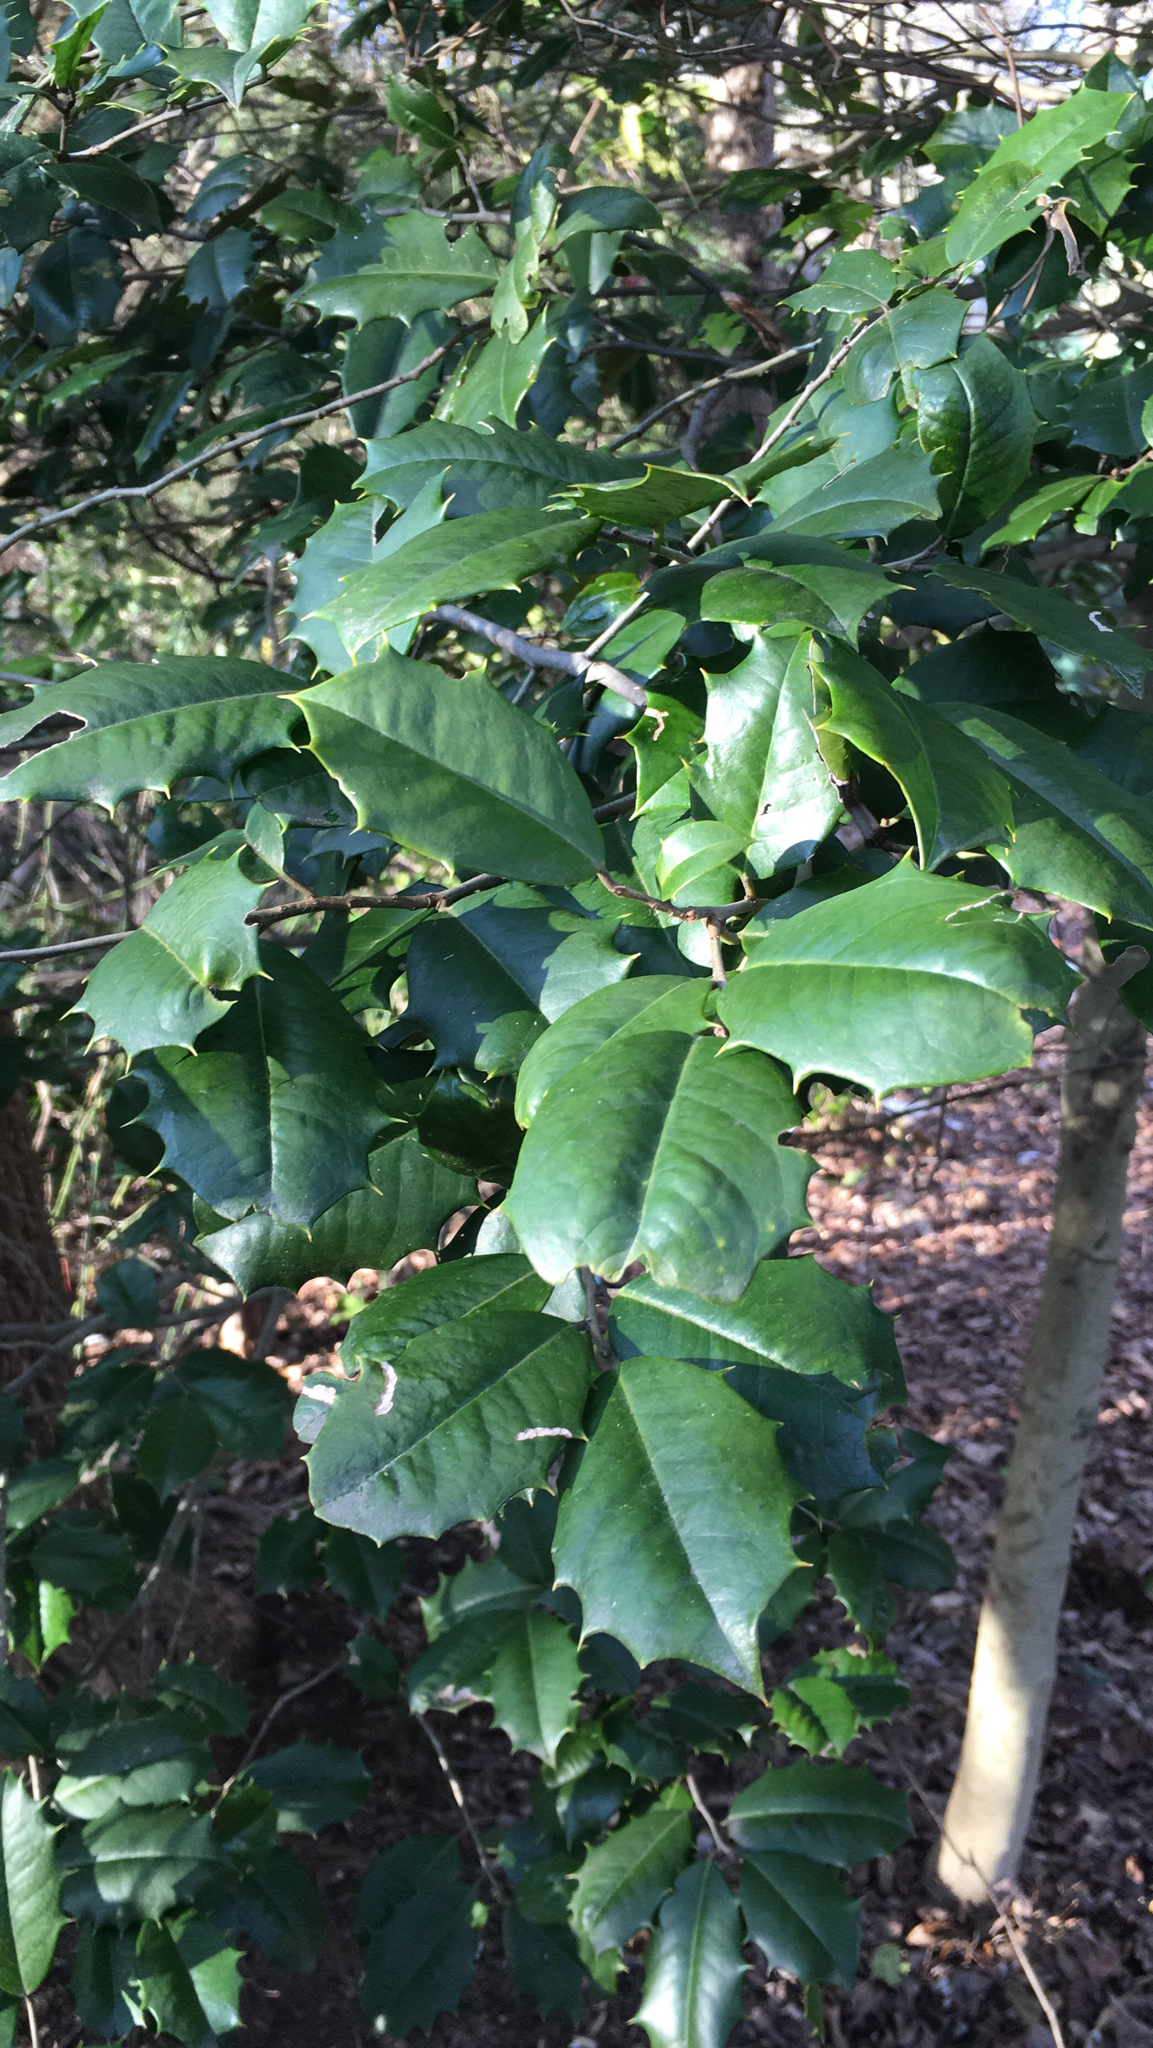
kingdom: Plantae
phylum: Tracheophyta
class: Magnoliopsida
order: Aquifoliales
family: Aquifoliaceae
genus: Ilex
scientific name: Ilex opaca
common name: American holly
